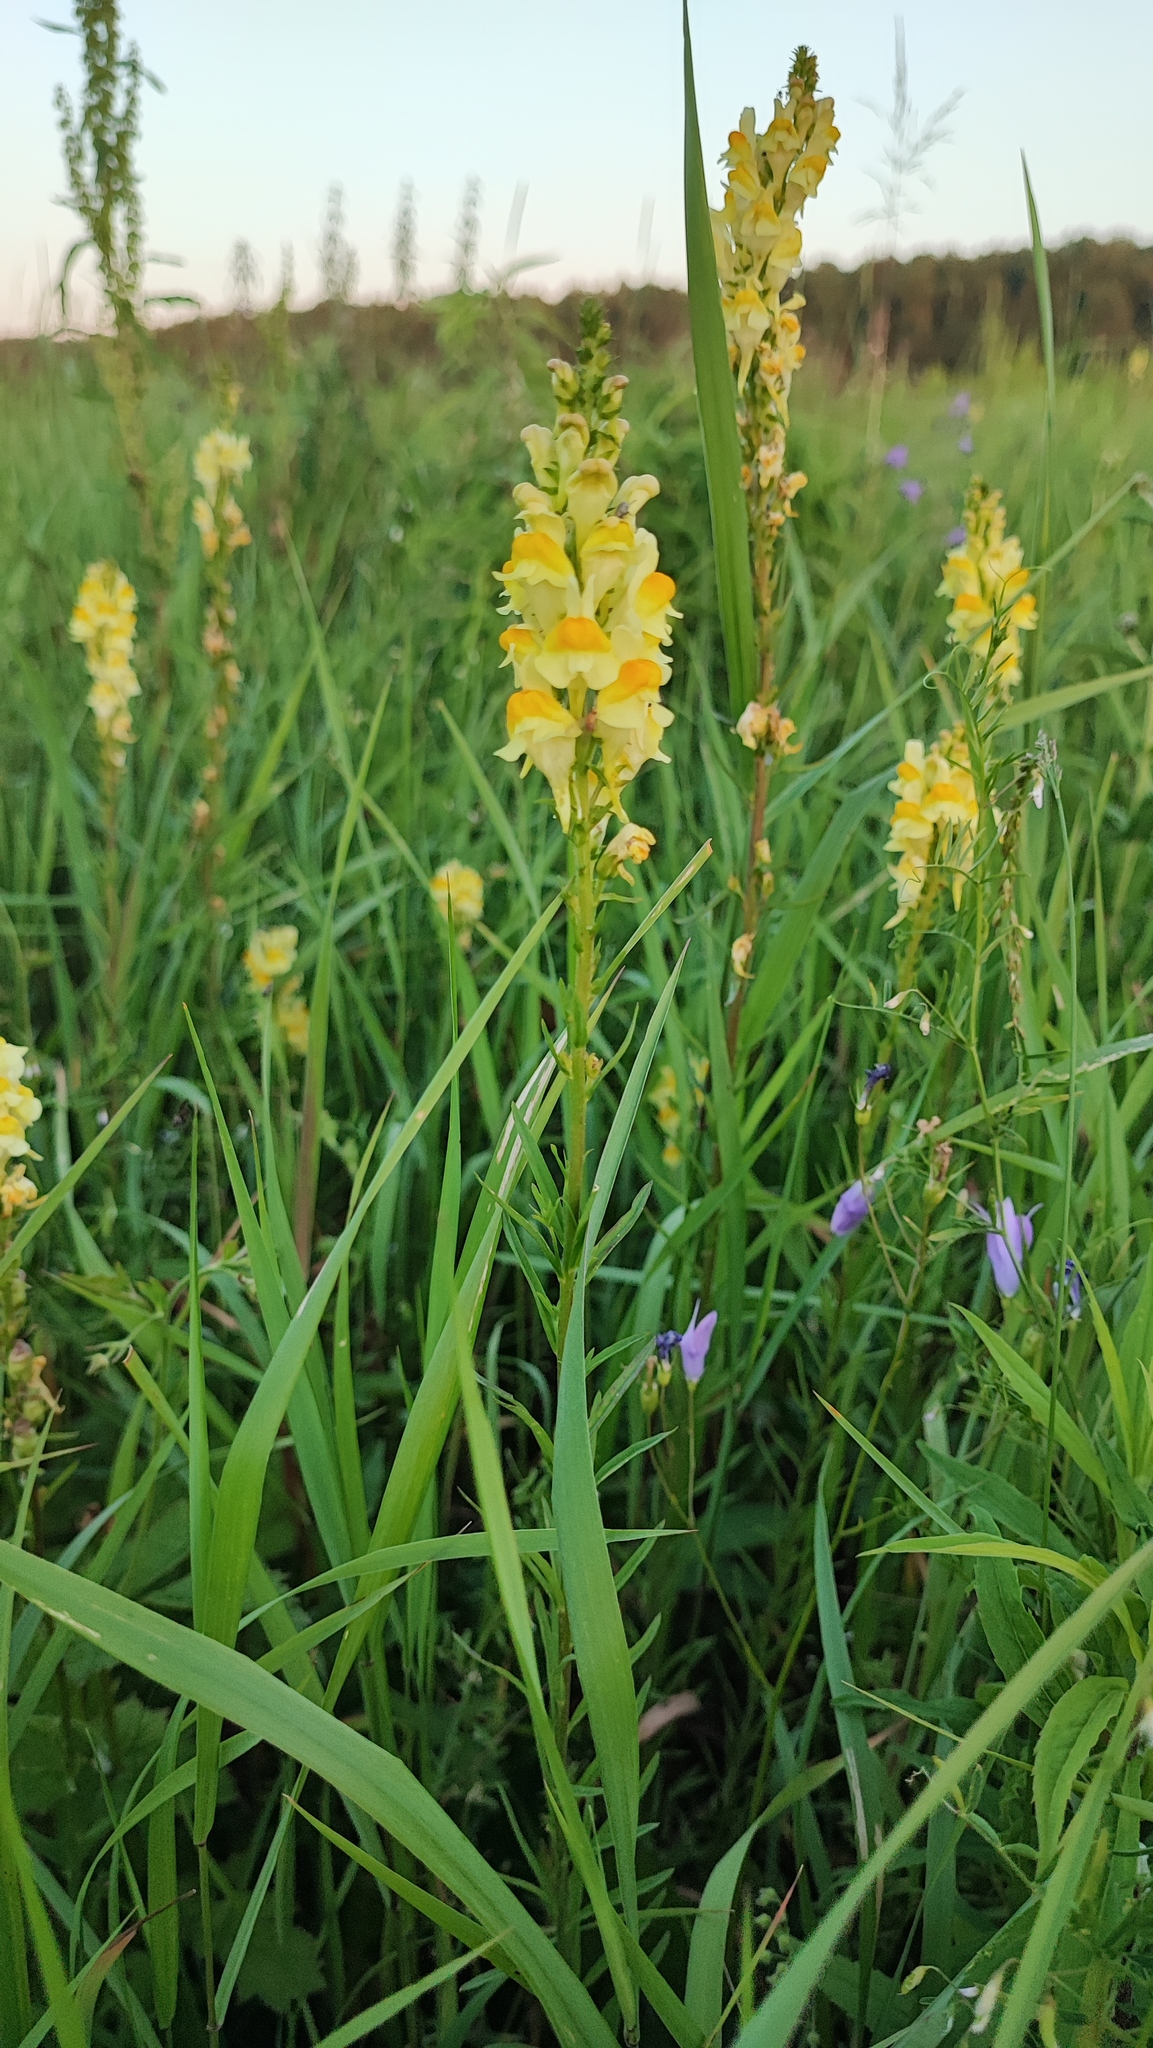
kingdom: Plantae
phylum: Tracheophyta
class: Magnoliopsida
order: Lamiales
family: Plantaginaceae
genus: Linaria
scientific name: Linaria vulgaris
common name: Butter and eggs
